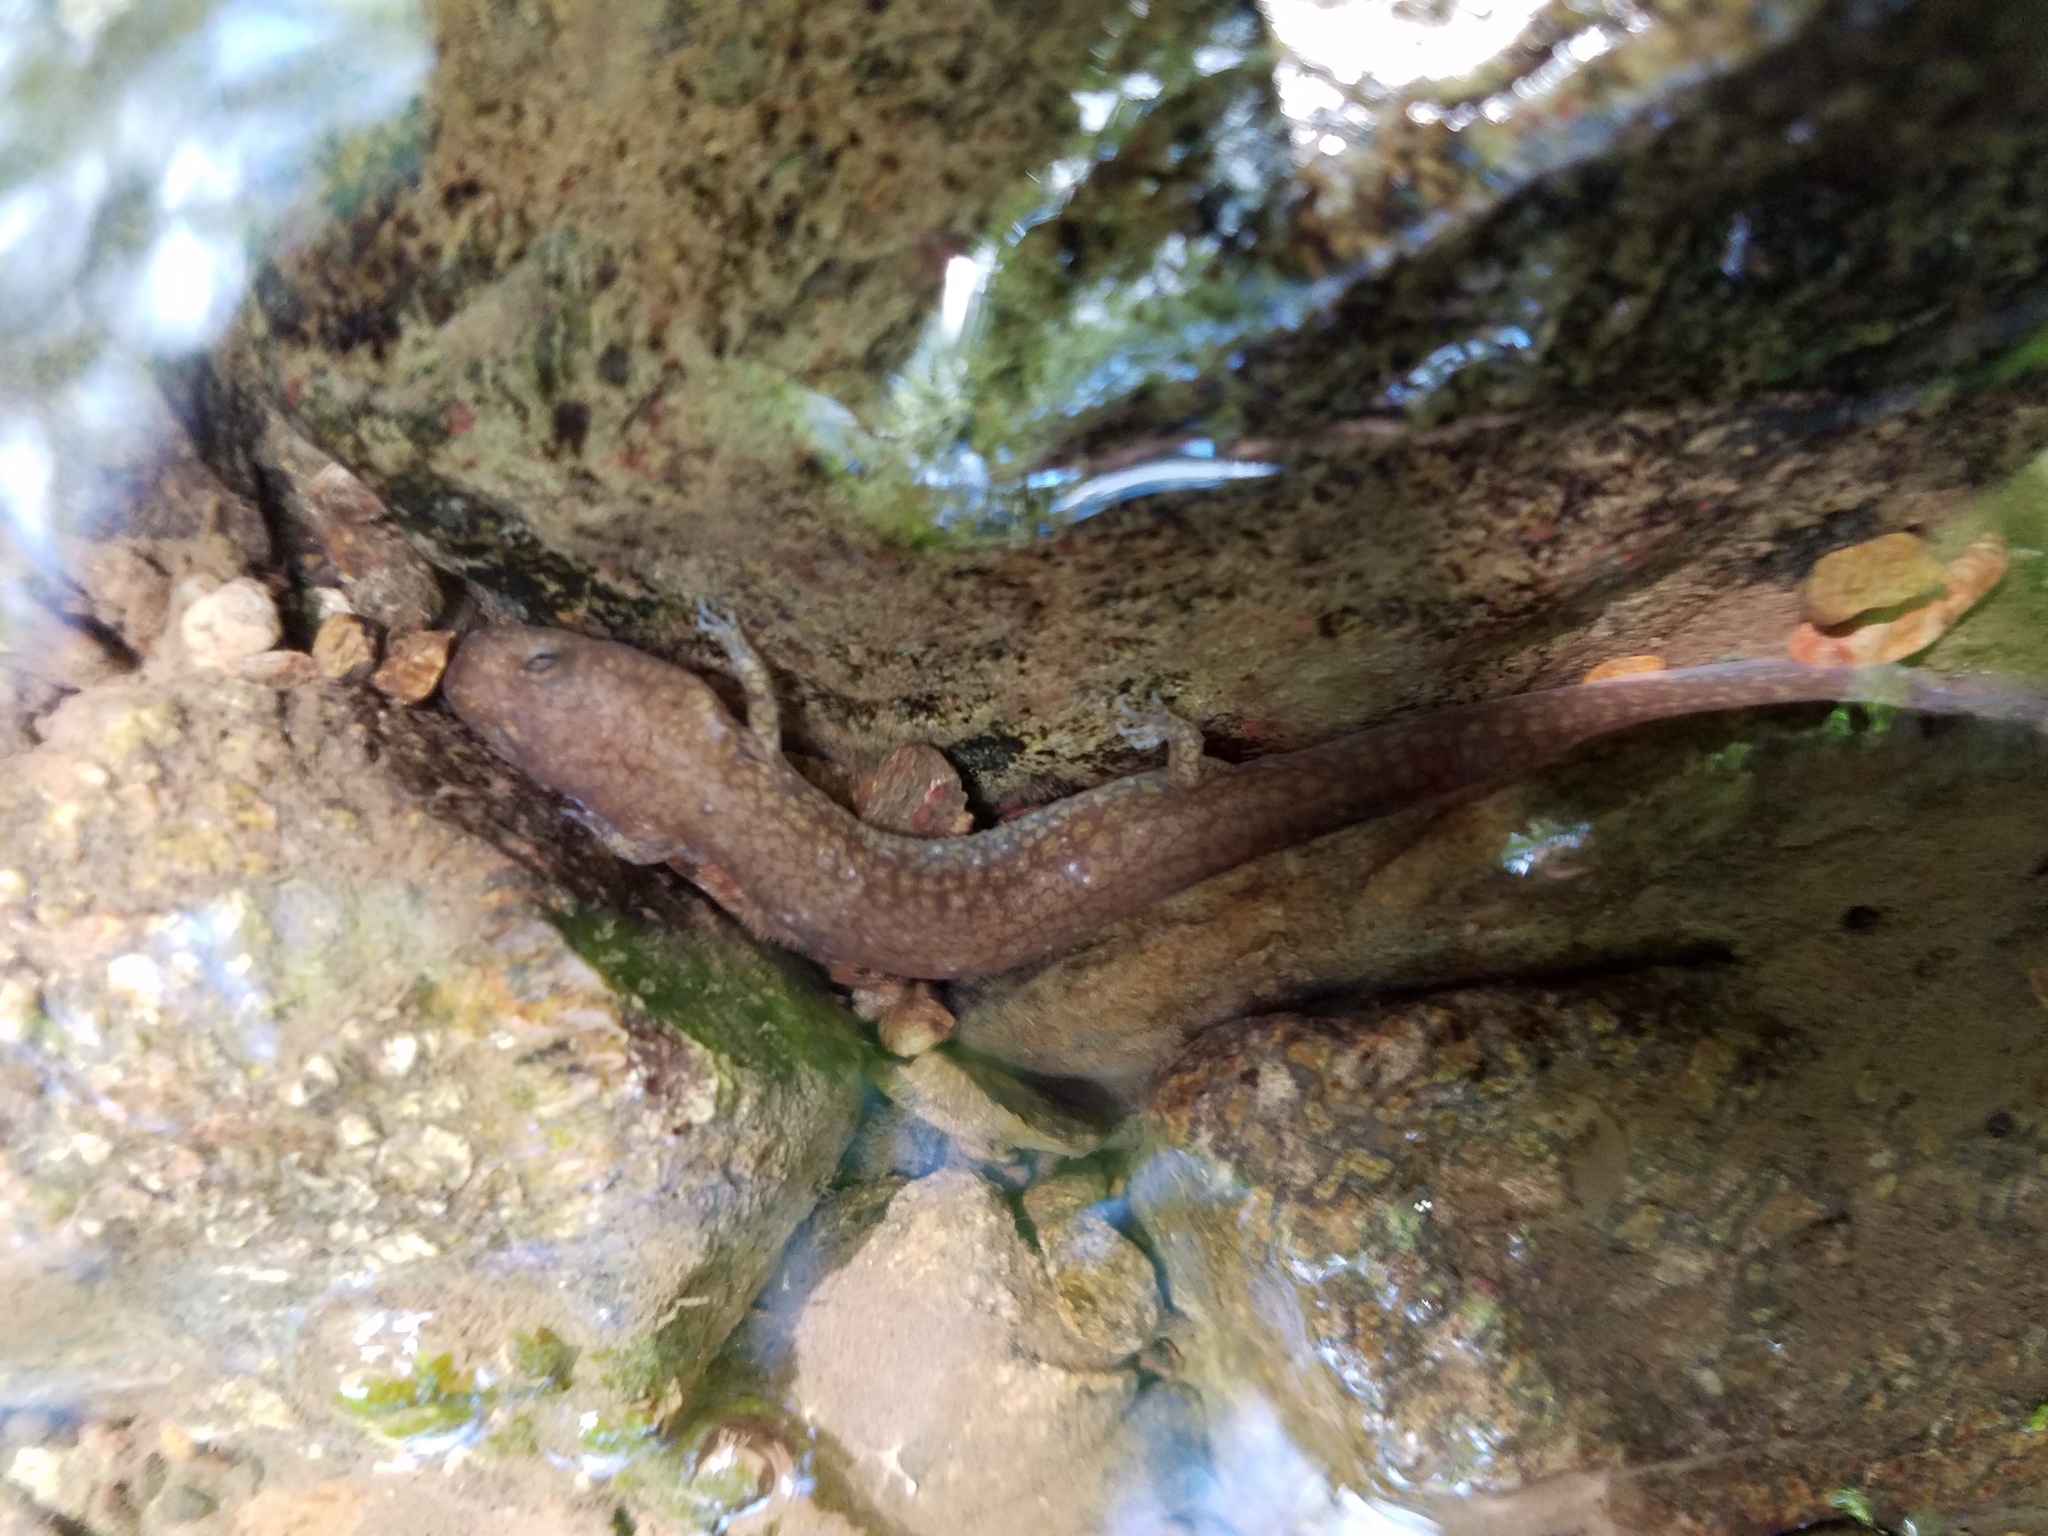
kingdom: Animalia
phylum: Chordata
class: Amphibia
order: Caudata
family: Plethodontidae
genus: Gyrinophilus
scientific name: Gyrinophilus porphyriticus
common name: Spring salamander
